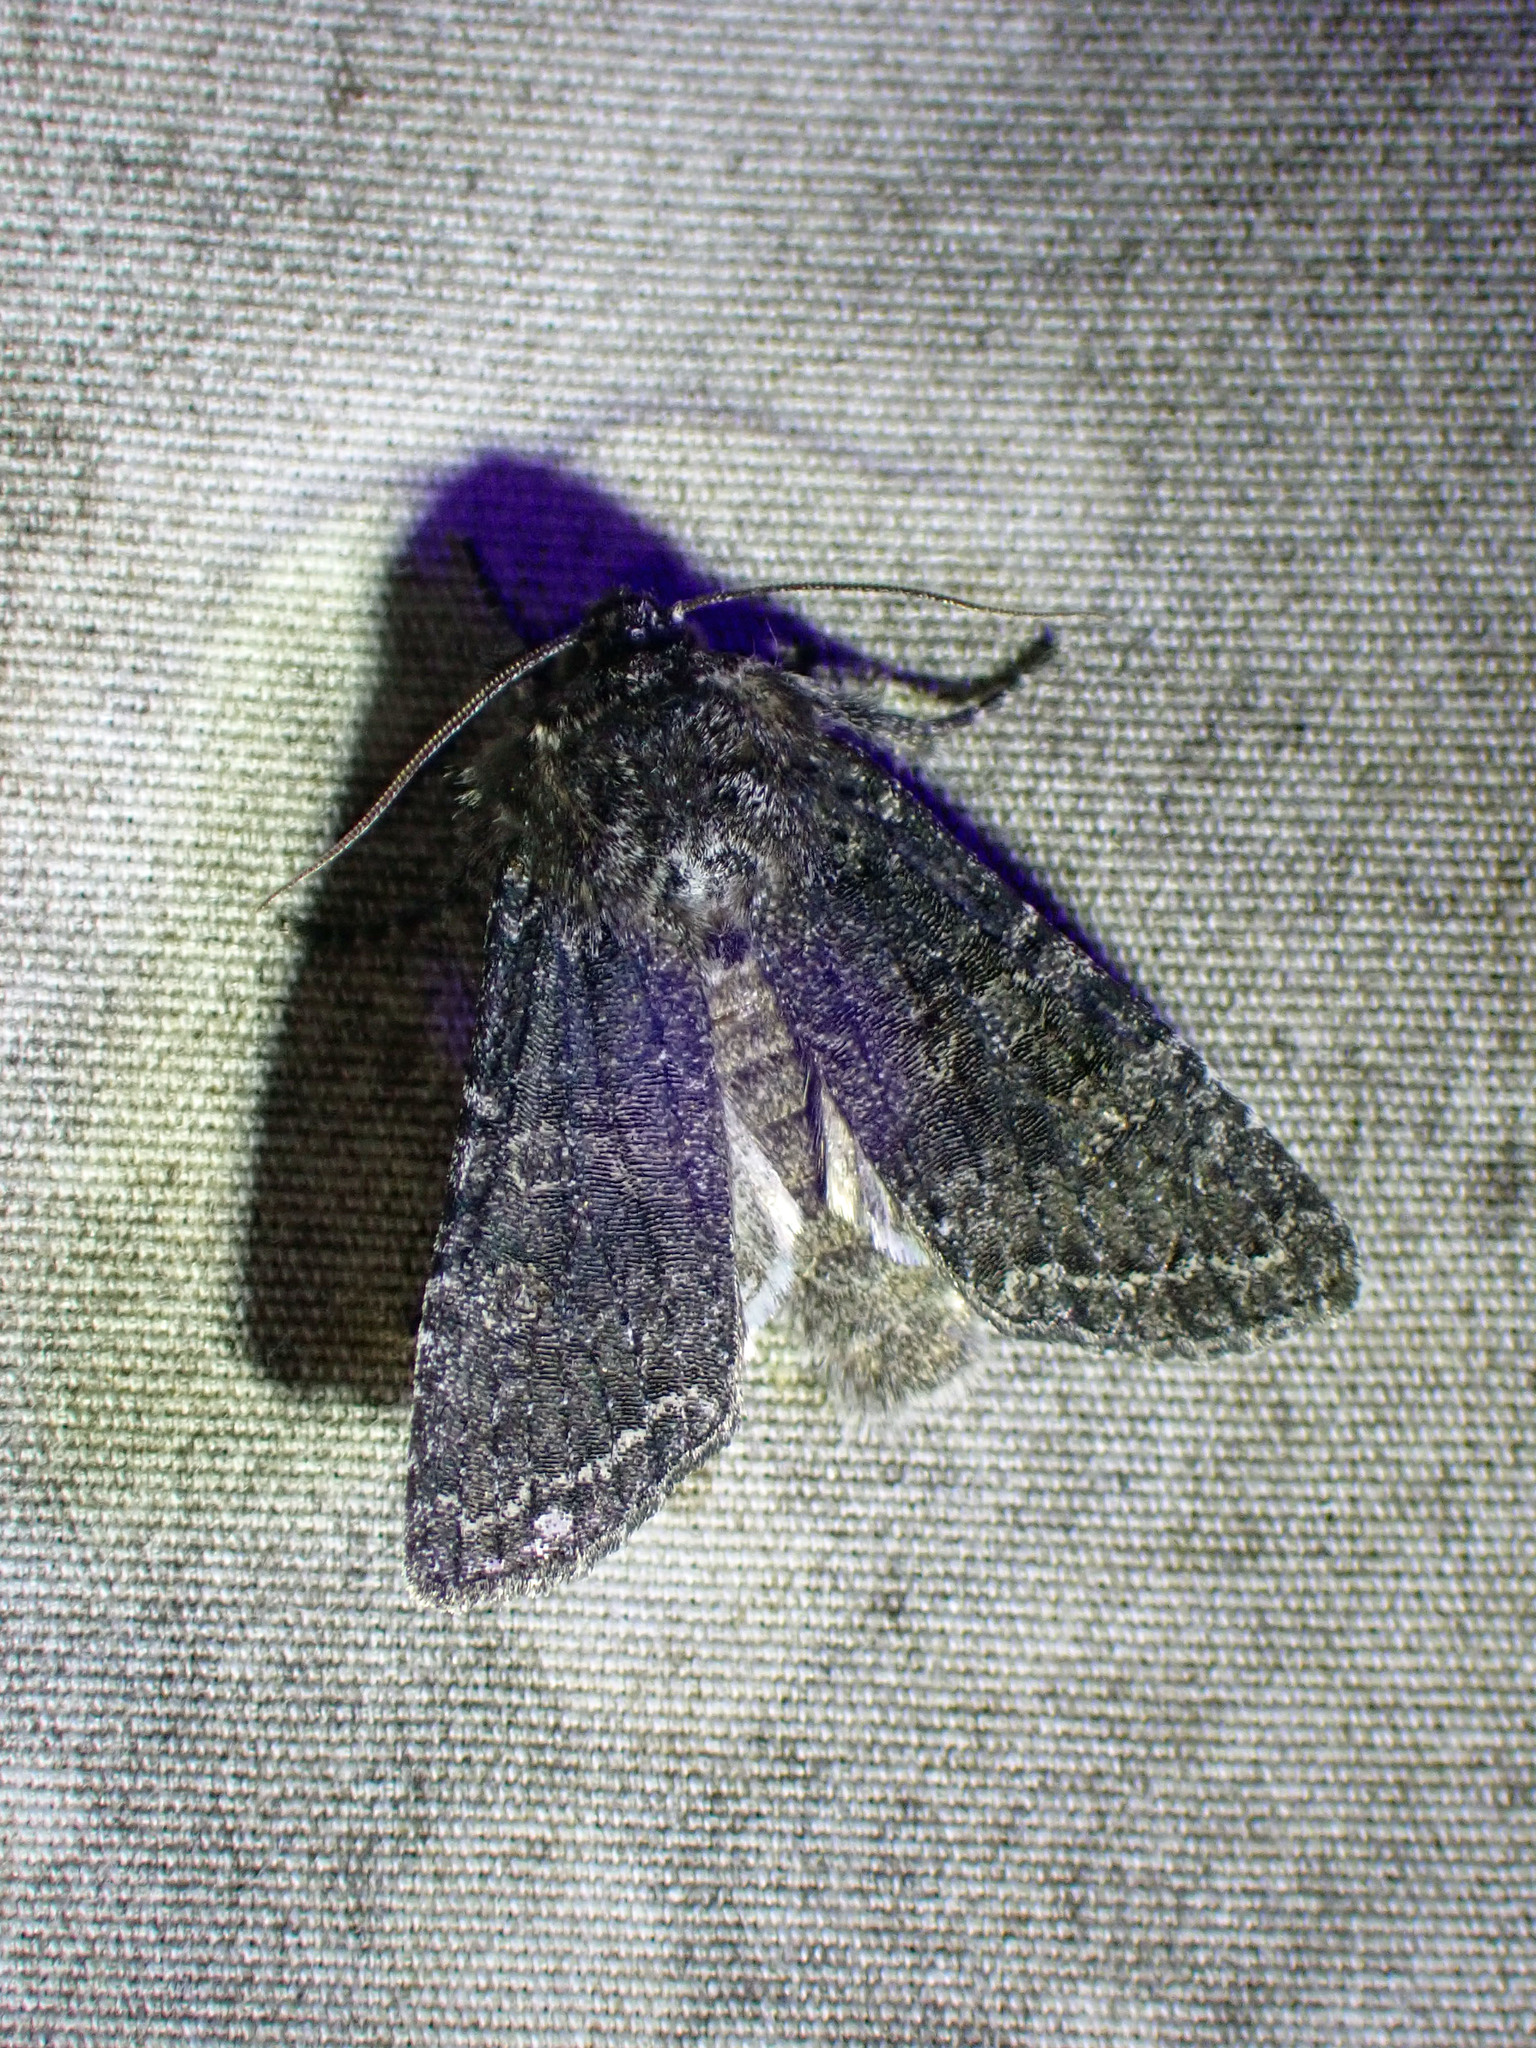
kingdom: Animalia
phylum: Arthropoda
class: Insecta
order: Lepidoptera
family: Noctuidae
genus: Egira
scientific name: Egira dolosa
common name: Lined black aspen cat.
